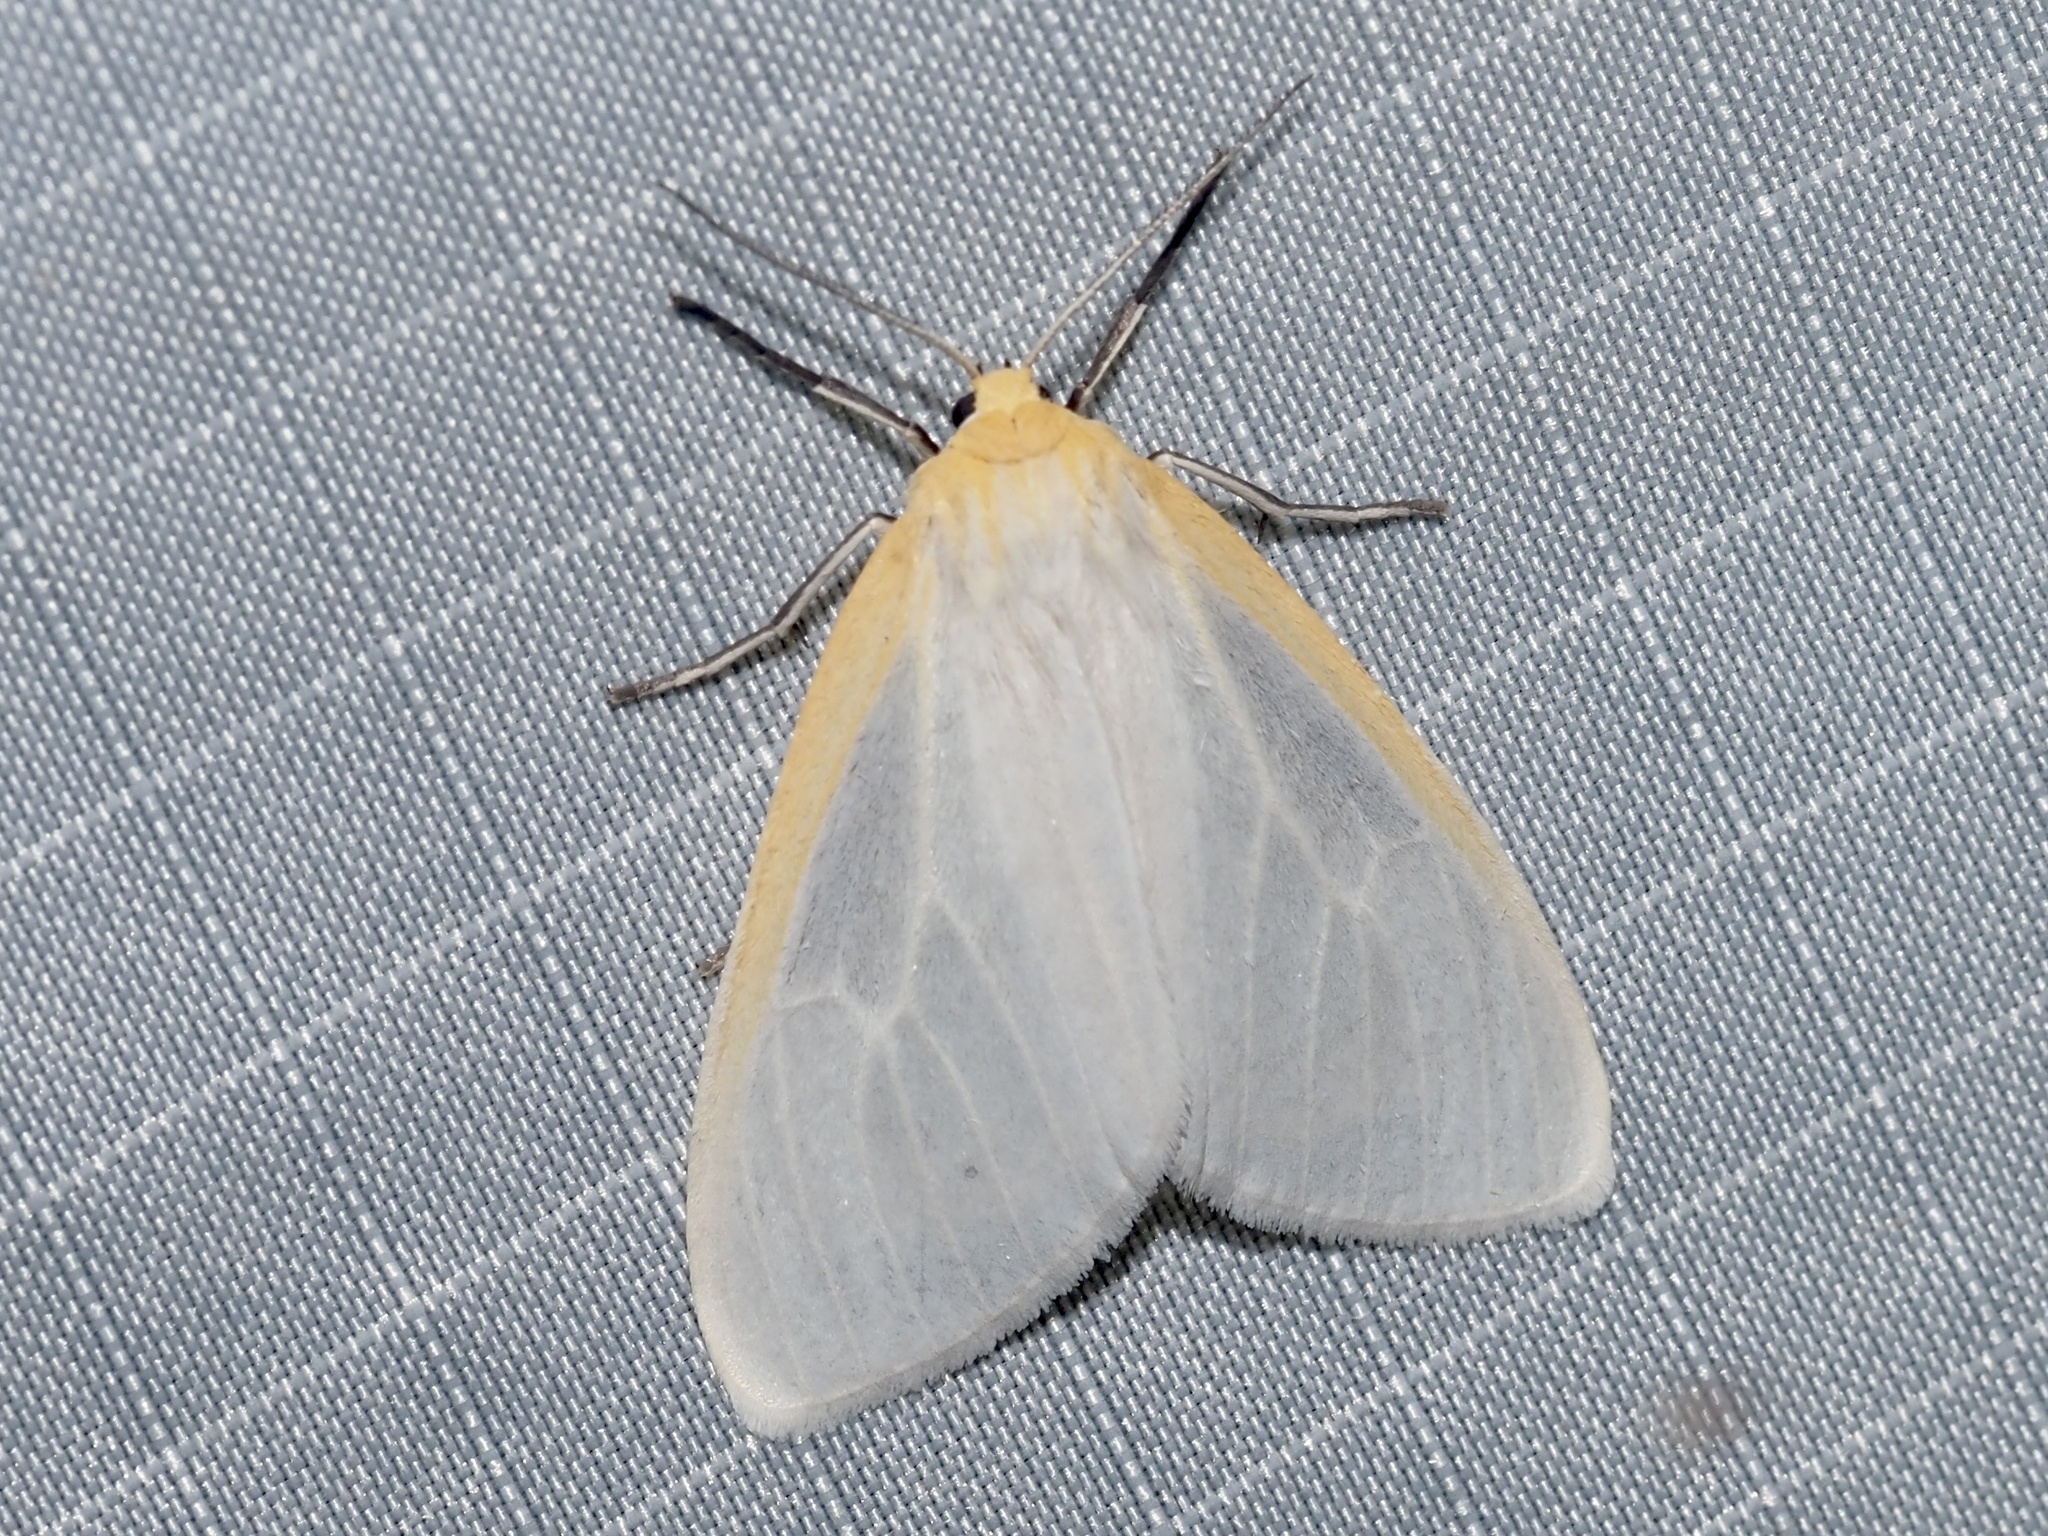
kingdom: Animalia
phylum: Arthropoda
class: Insecta
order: Lepidoptera
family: Erebidae
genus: Cycnia
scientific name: Cycnia tenera
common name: Delicate cycnia moth
